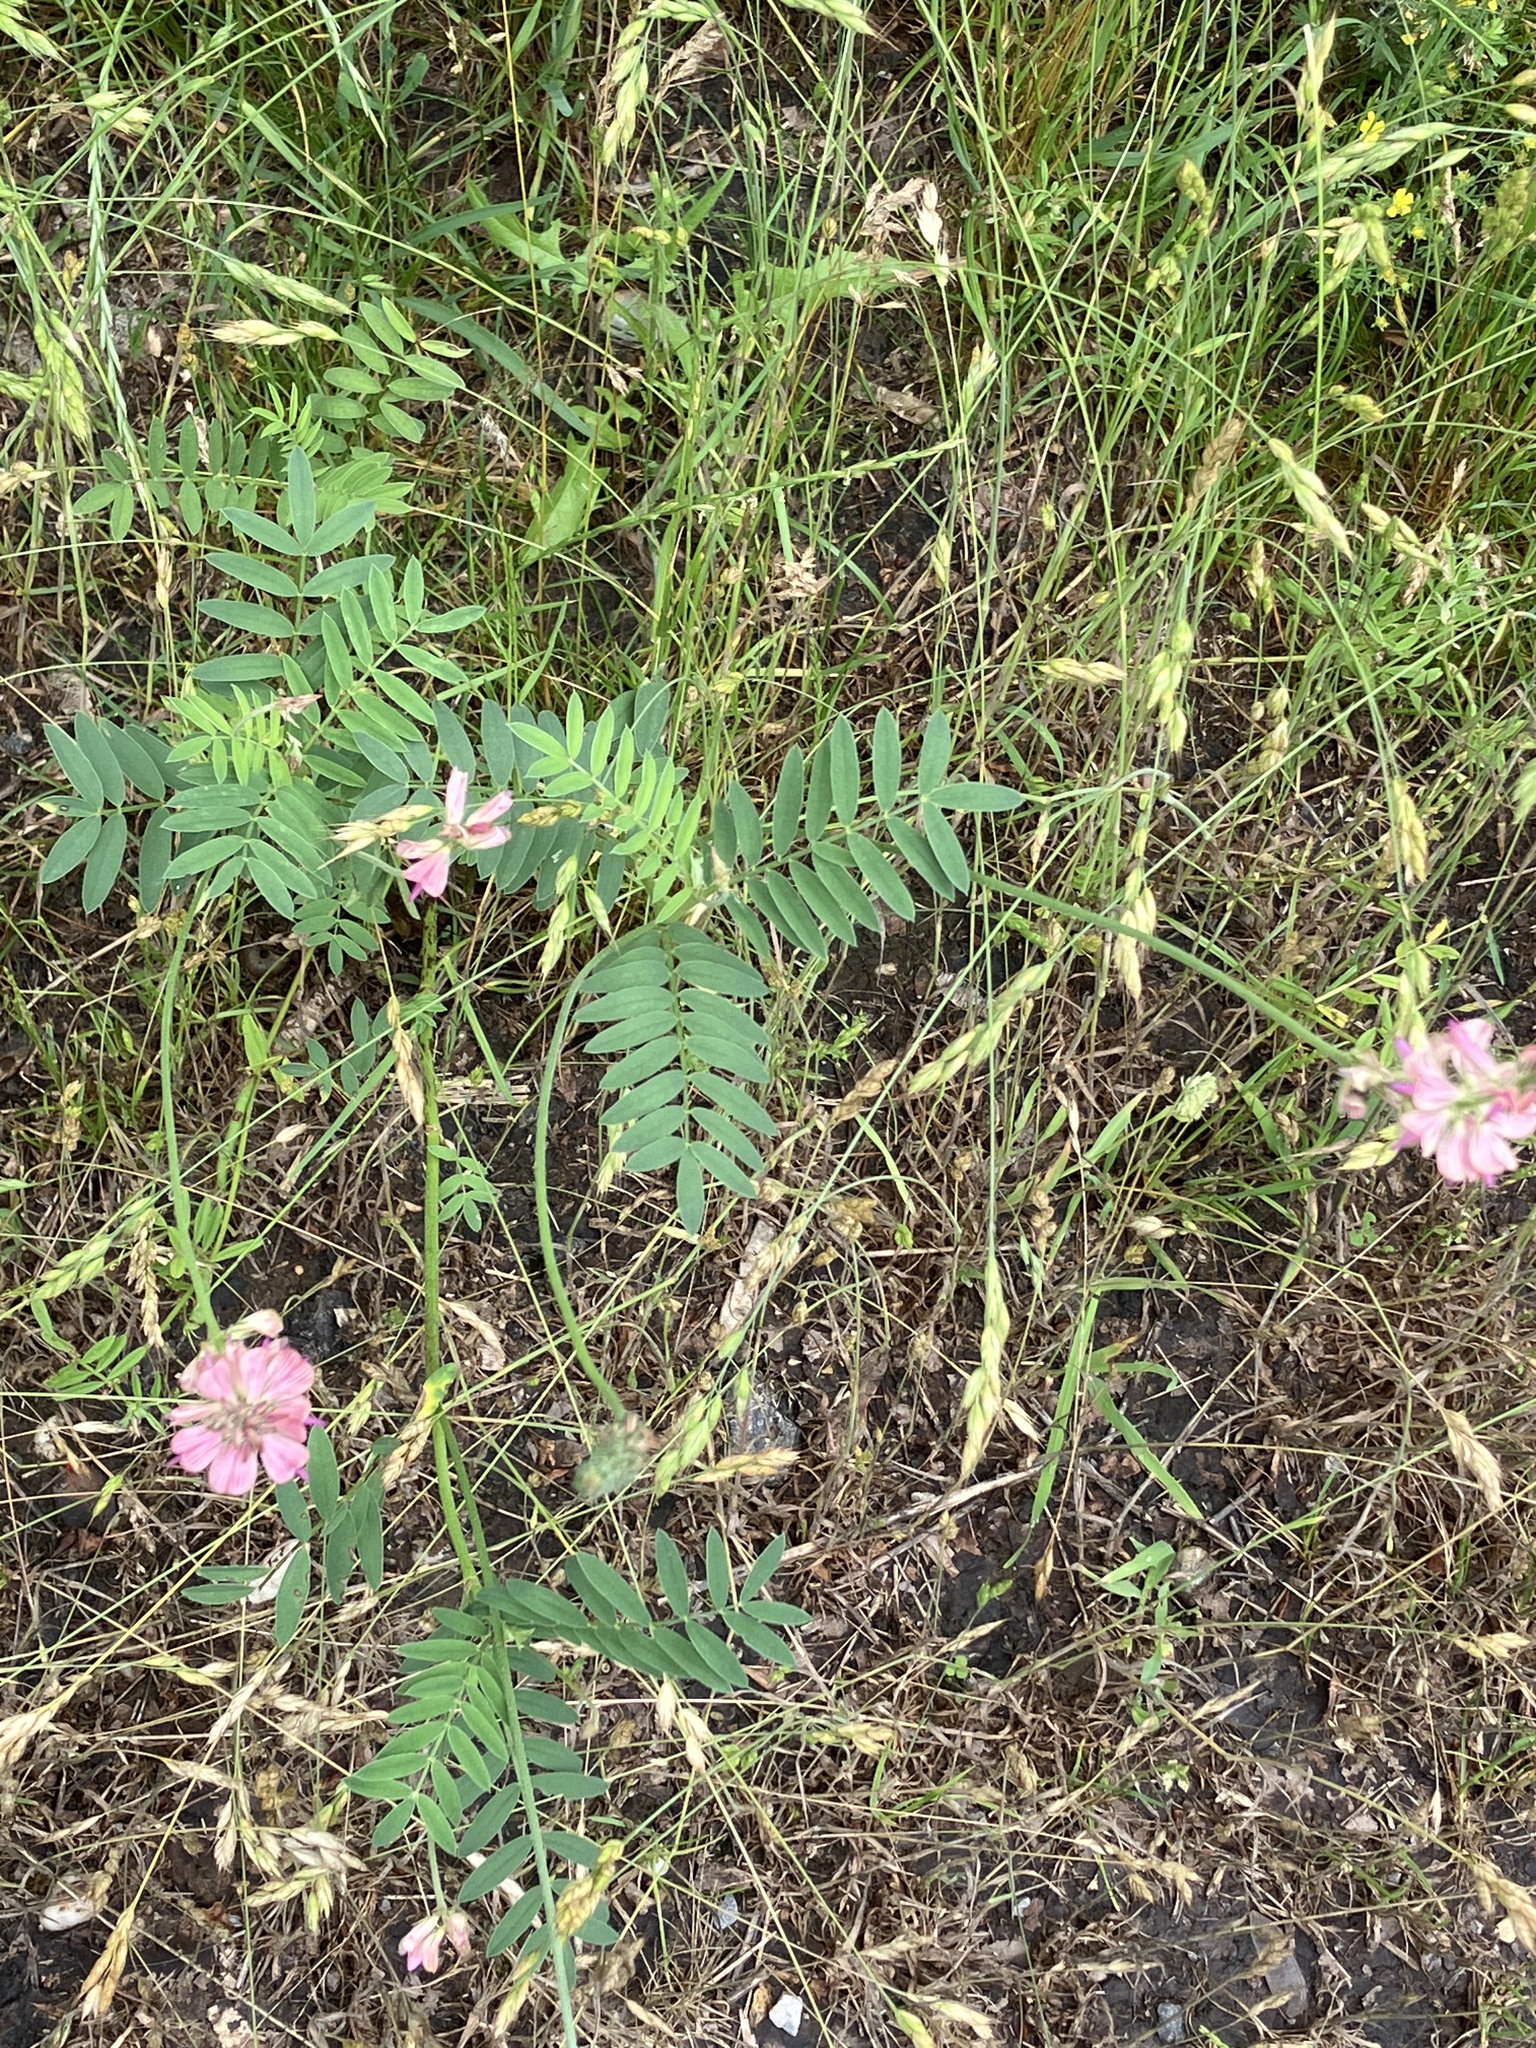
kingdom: Plantae
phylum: Tracheophyta
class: Magnoliopsida
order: Fabales
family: Fabaceae
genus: Onobrychis
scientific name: Onobrychis viciifolia
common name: Sainfoin
